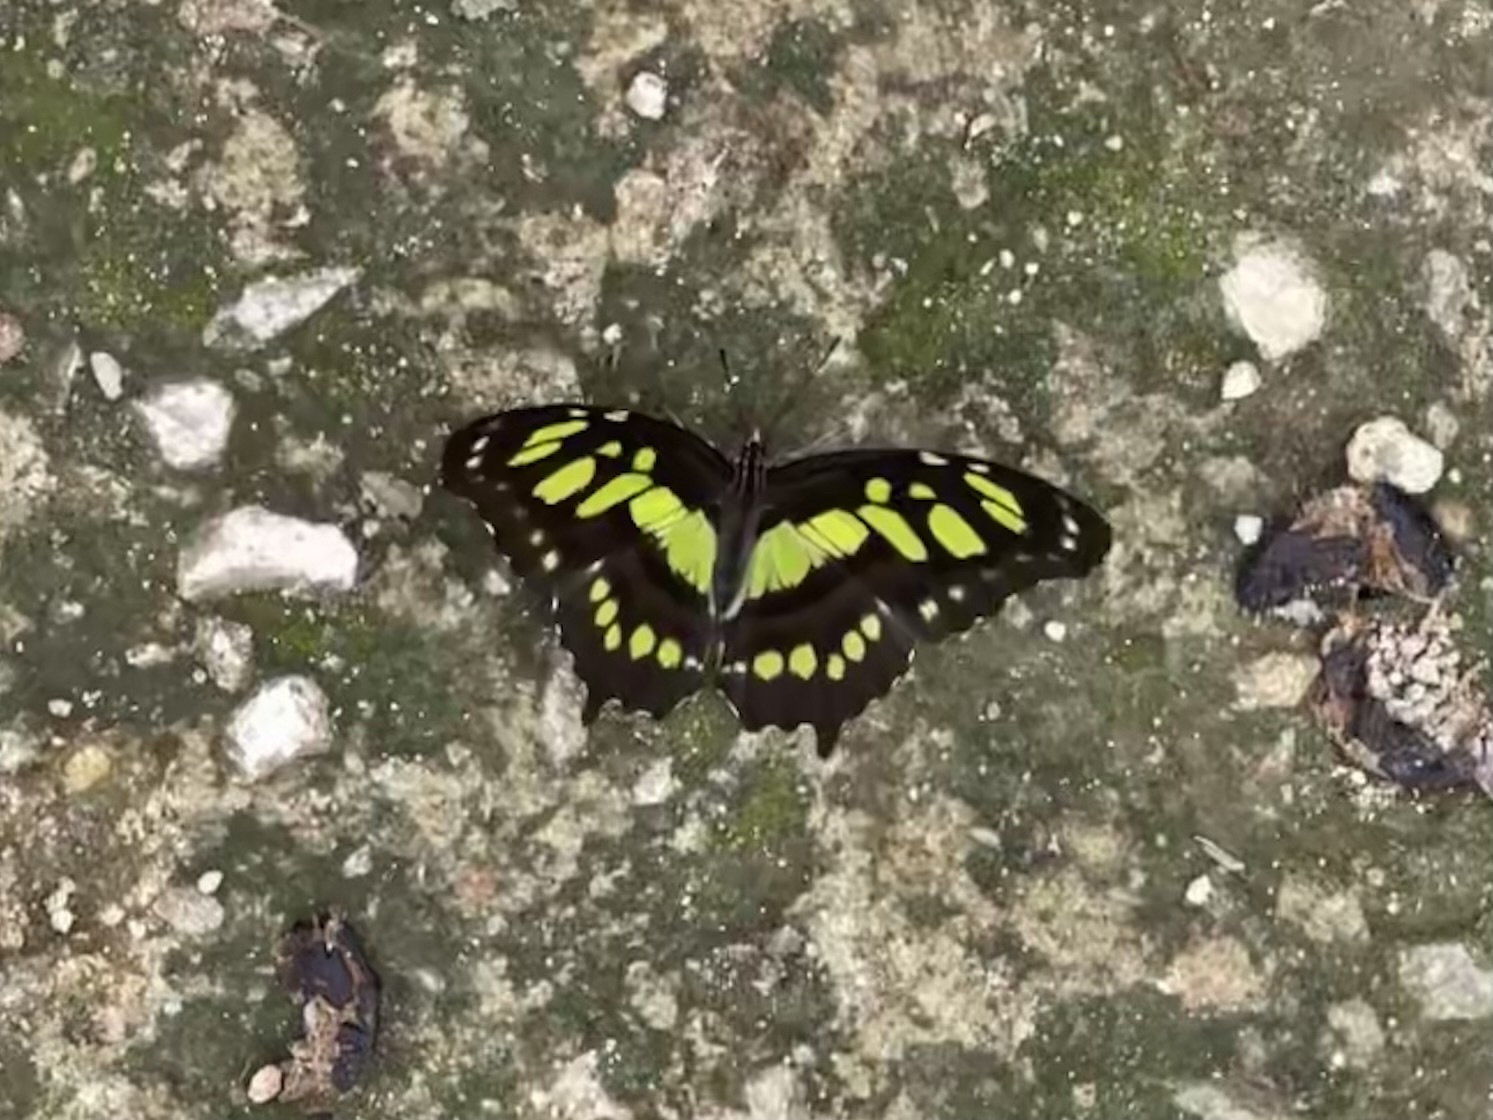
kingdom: Animalia
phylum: Arthropoda
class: Insecta
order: Lepidoptera
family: Nymphalidae
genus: Siproeta
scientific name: Siproeta stelenes
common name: Malachite
